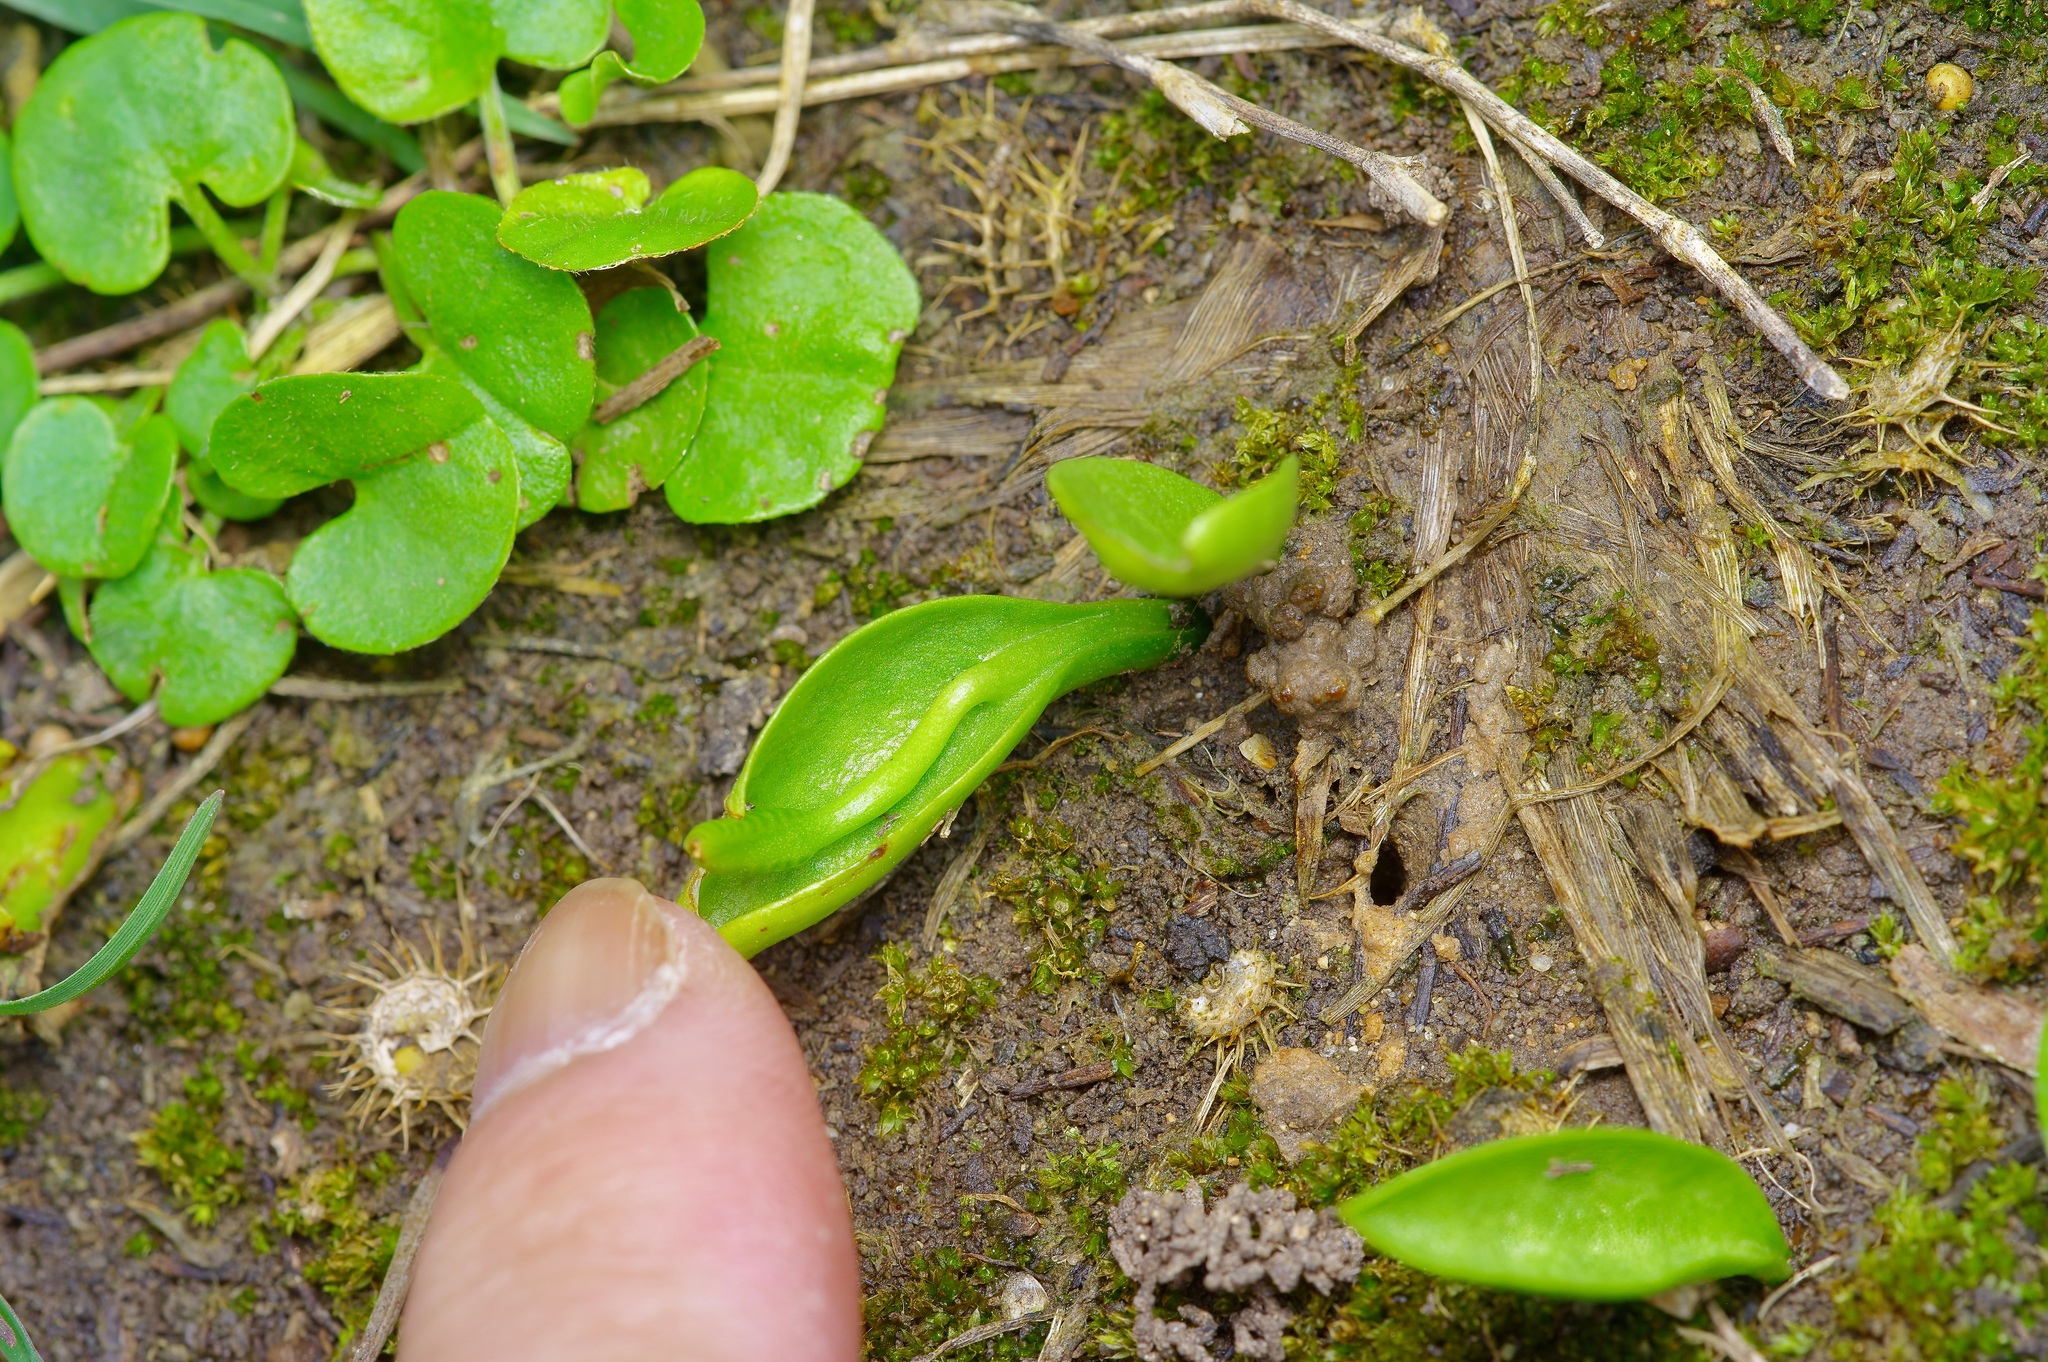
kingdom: Plantae
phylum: Tracheophyta
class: Polypodiopsida
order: Ophioglossales
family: Ophioglossaceae
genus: Ophioglossum
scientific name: Ophioglossum engelmannii
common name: Limestone adder's-tongue
